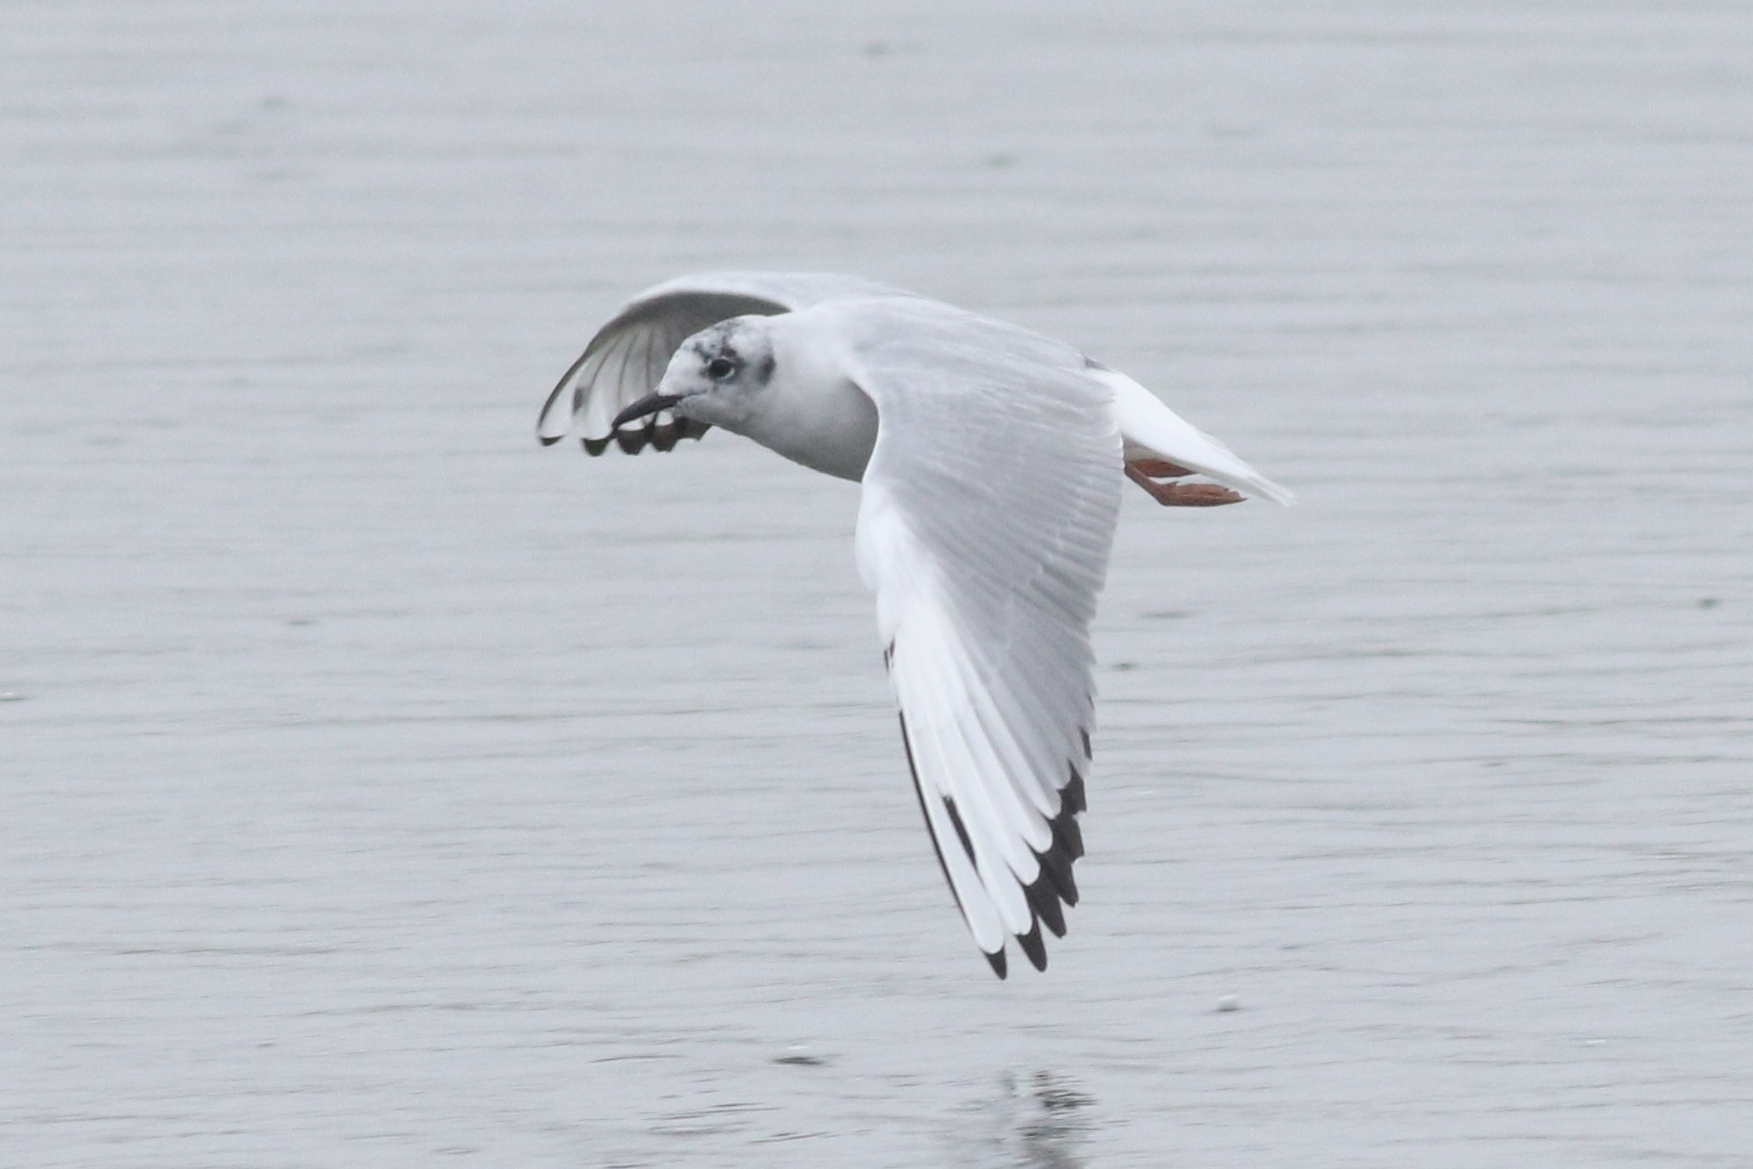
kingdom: Animalia
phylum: Chordata
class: Aves
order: Charadriiformes
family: Laridae
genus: Chroicocephalus
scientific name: Chroicocephalus philadelphia
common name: Bonaparte's gull
